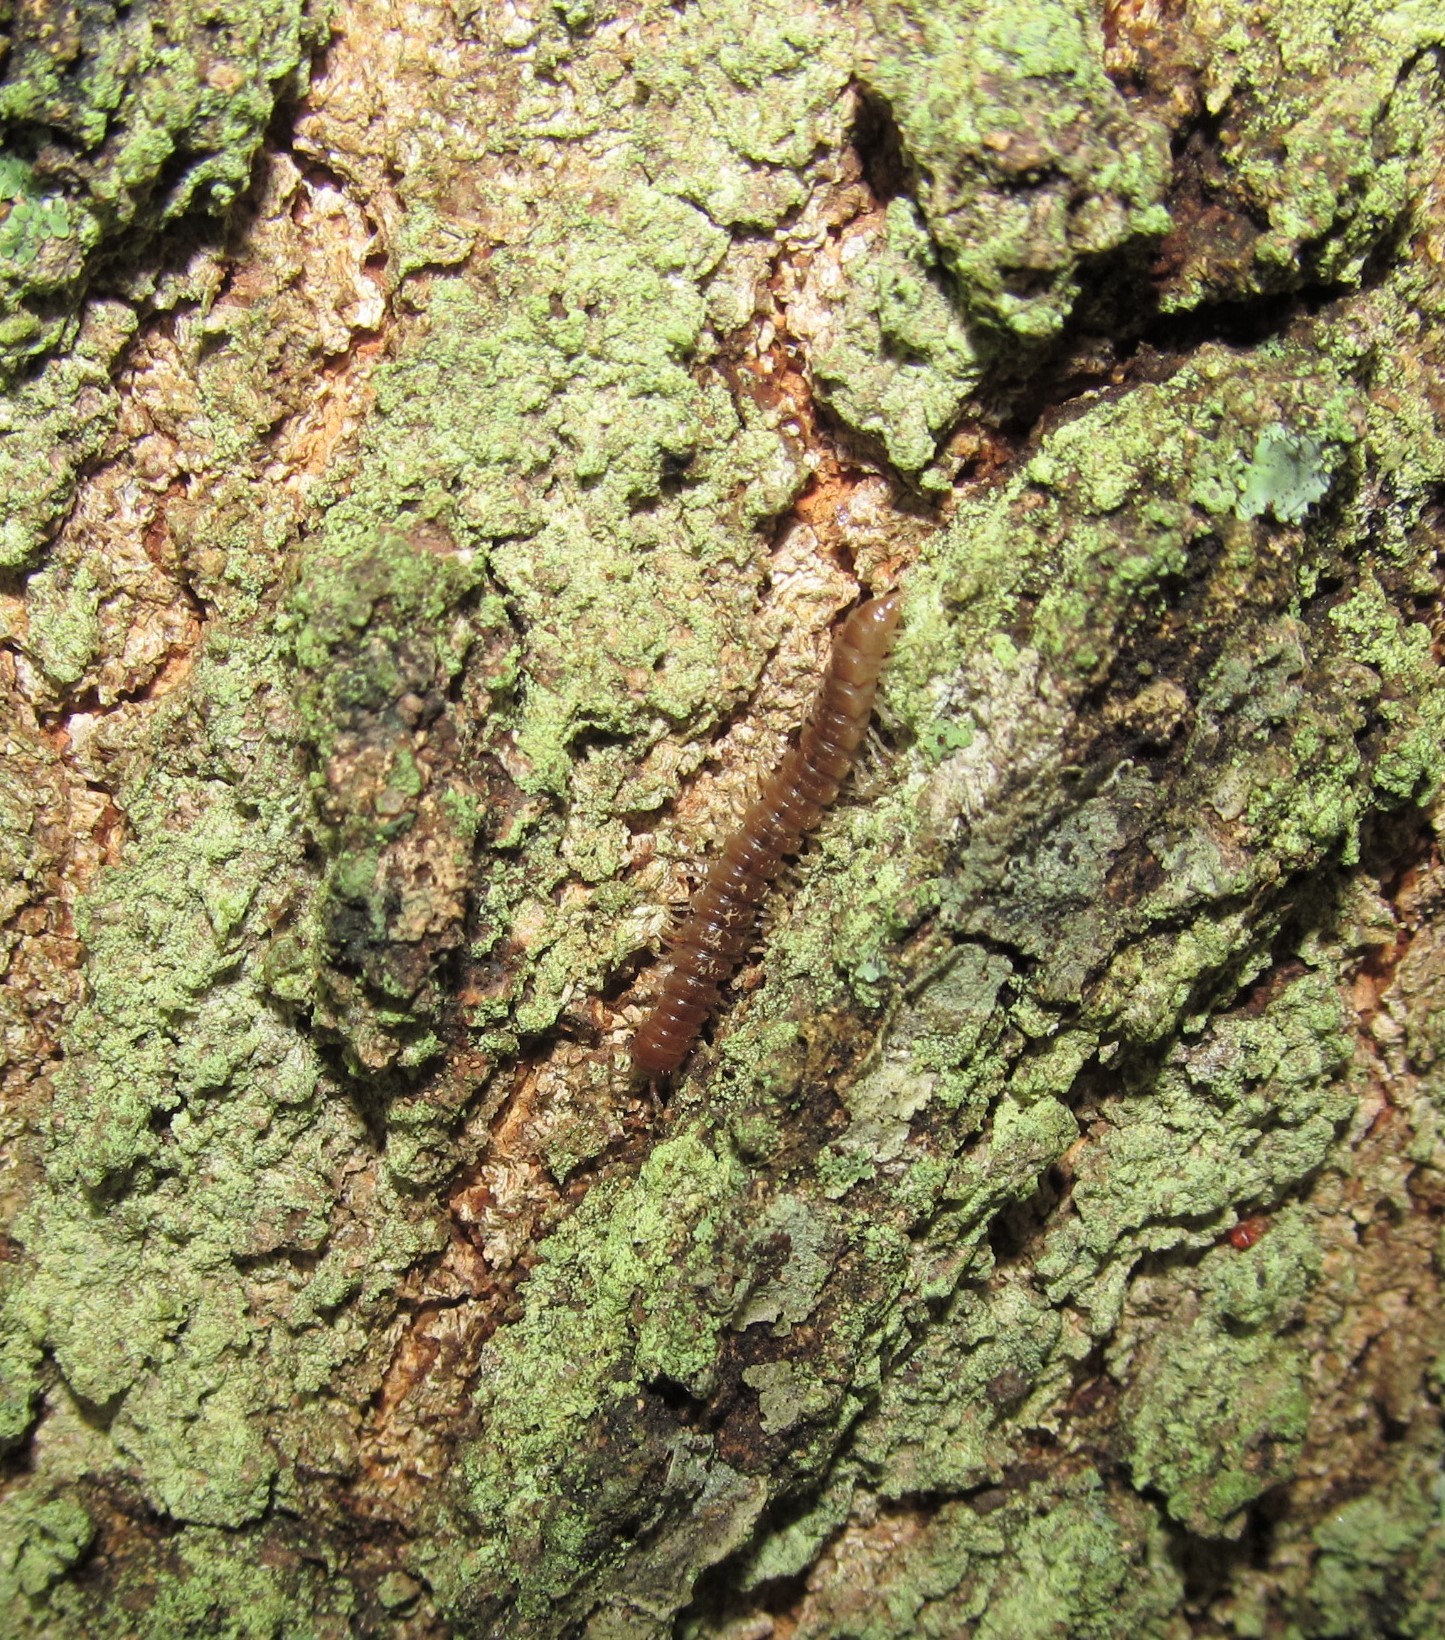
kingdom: Animalia
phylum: Arthropoda
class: Diplopoda
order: Polydesmida
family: Paradoxosomatidae
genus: Oxidus
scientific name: Oxidus gracilis
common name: Greenhouse millipede
